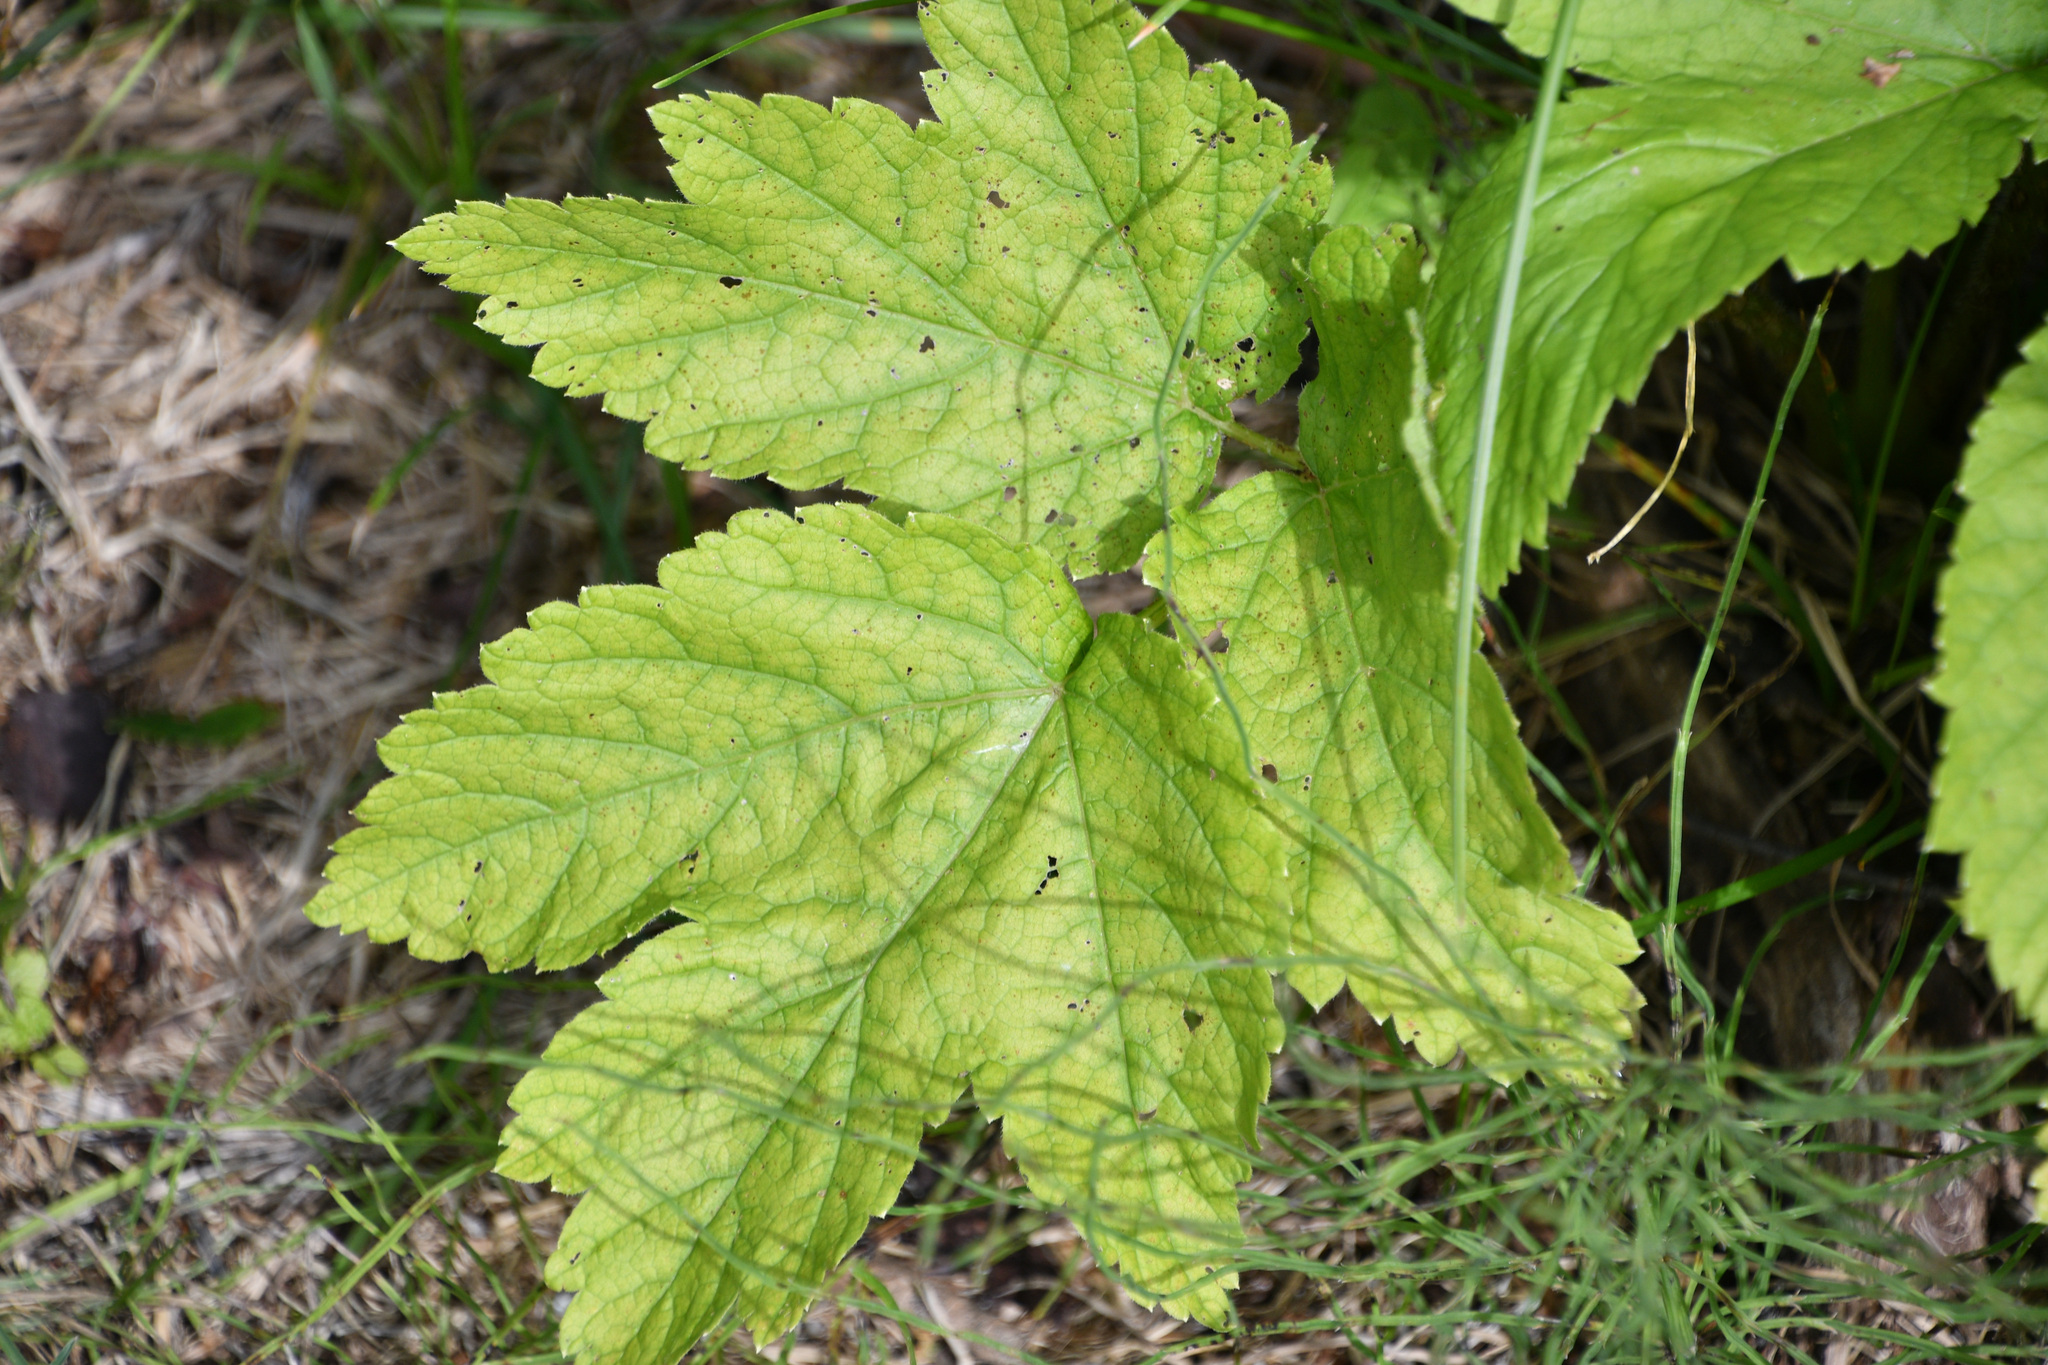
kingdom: Plantae
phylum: Tracheophyta
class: Magnoliopsida
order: Apiales
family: Apiaceae
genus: Heracleum
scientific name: Heracleum maximum
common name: American cow parsnip
